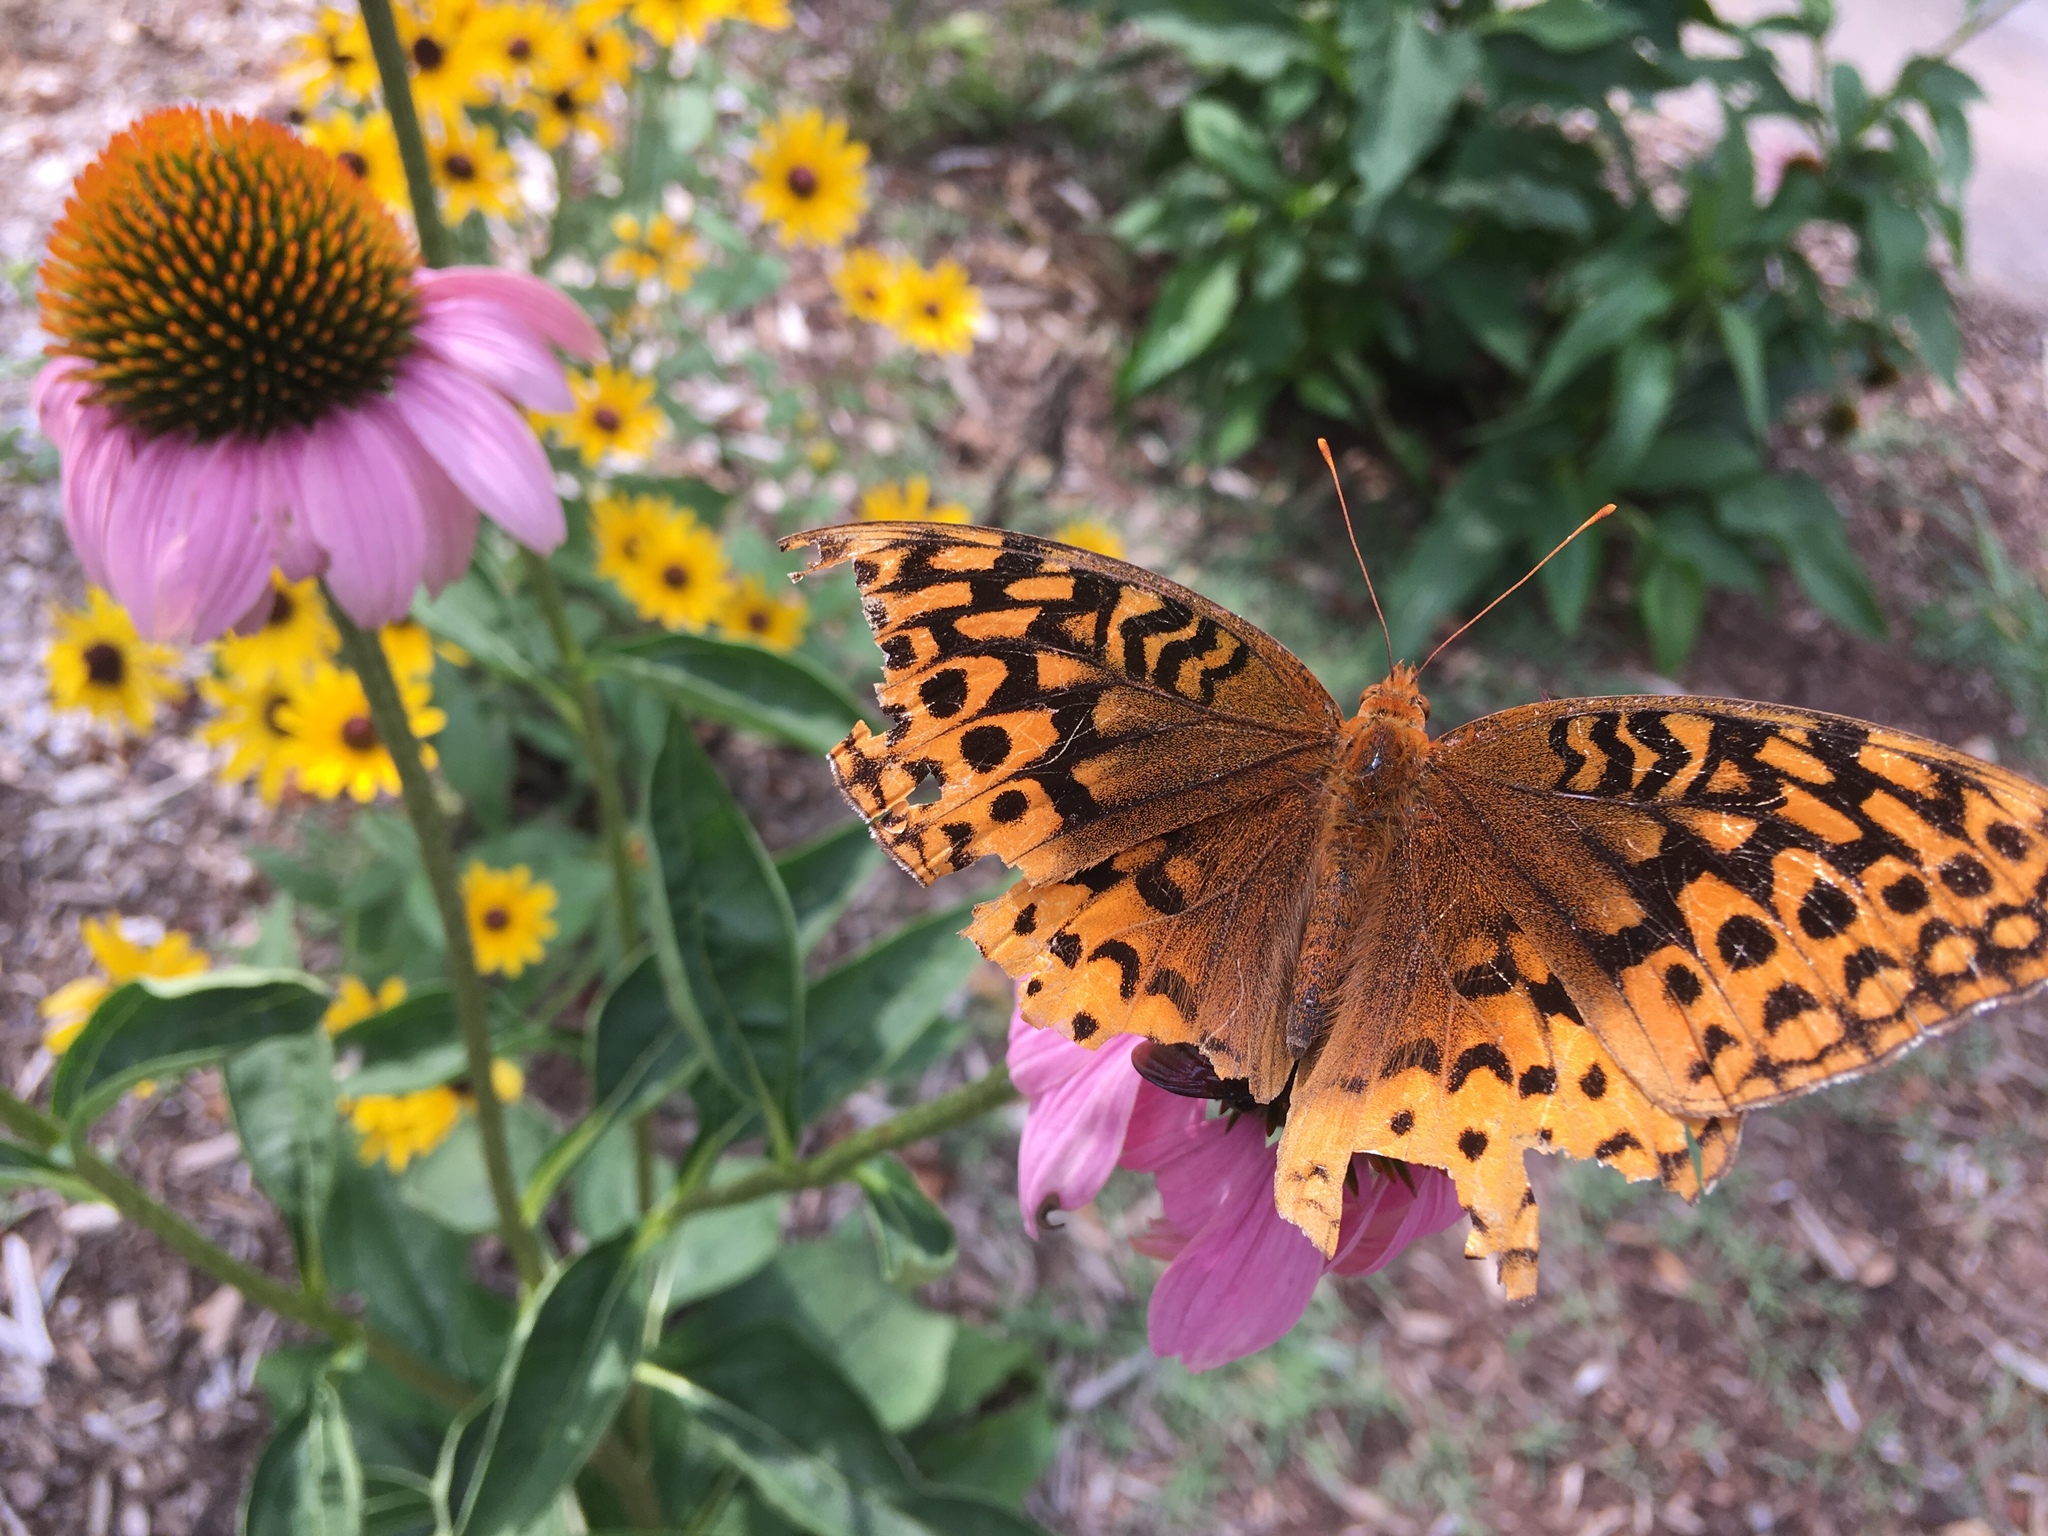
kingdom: Animalia
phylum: Arthropoda
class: Insecta
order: Lepidoptera
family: Nymphalidae
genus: Speyeria
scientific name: Speyeria cybele
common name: Great spangled fritillary
